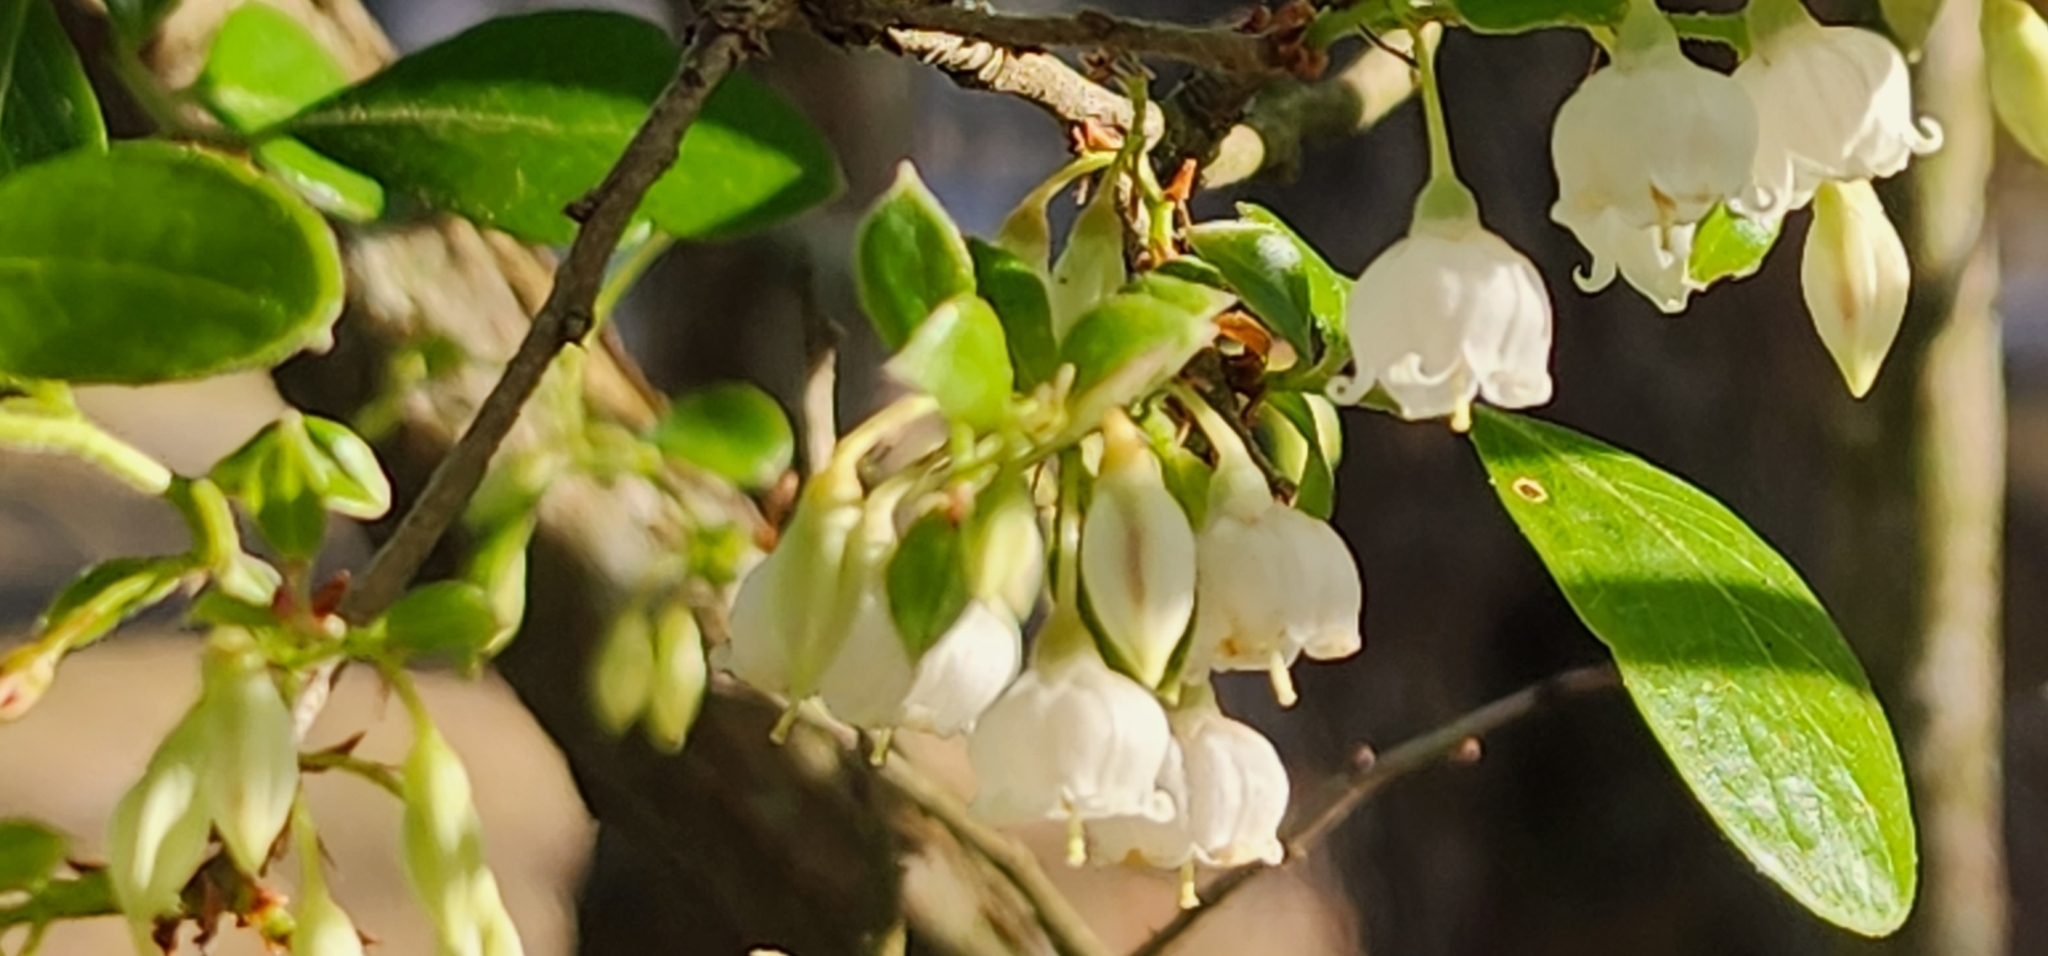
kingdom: Plantae
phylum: Tracheophyta
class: Magnoliopsida
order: Ericales
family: Ericaceae
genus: Vaccinium
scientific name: Vaccinium arboreum
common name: Farkleberry
